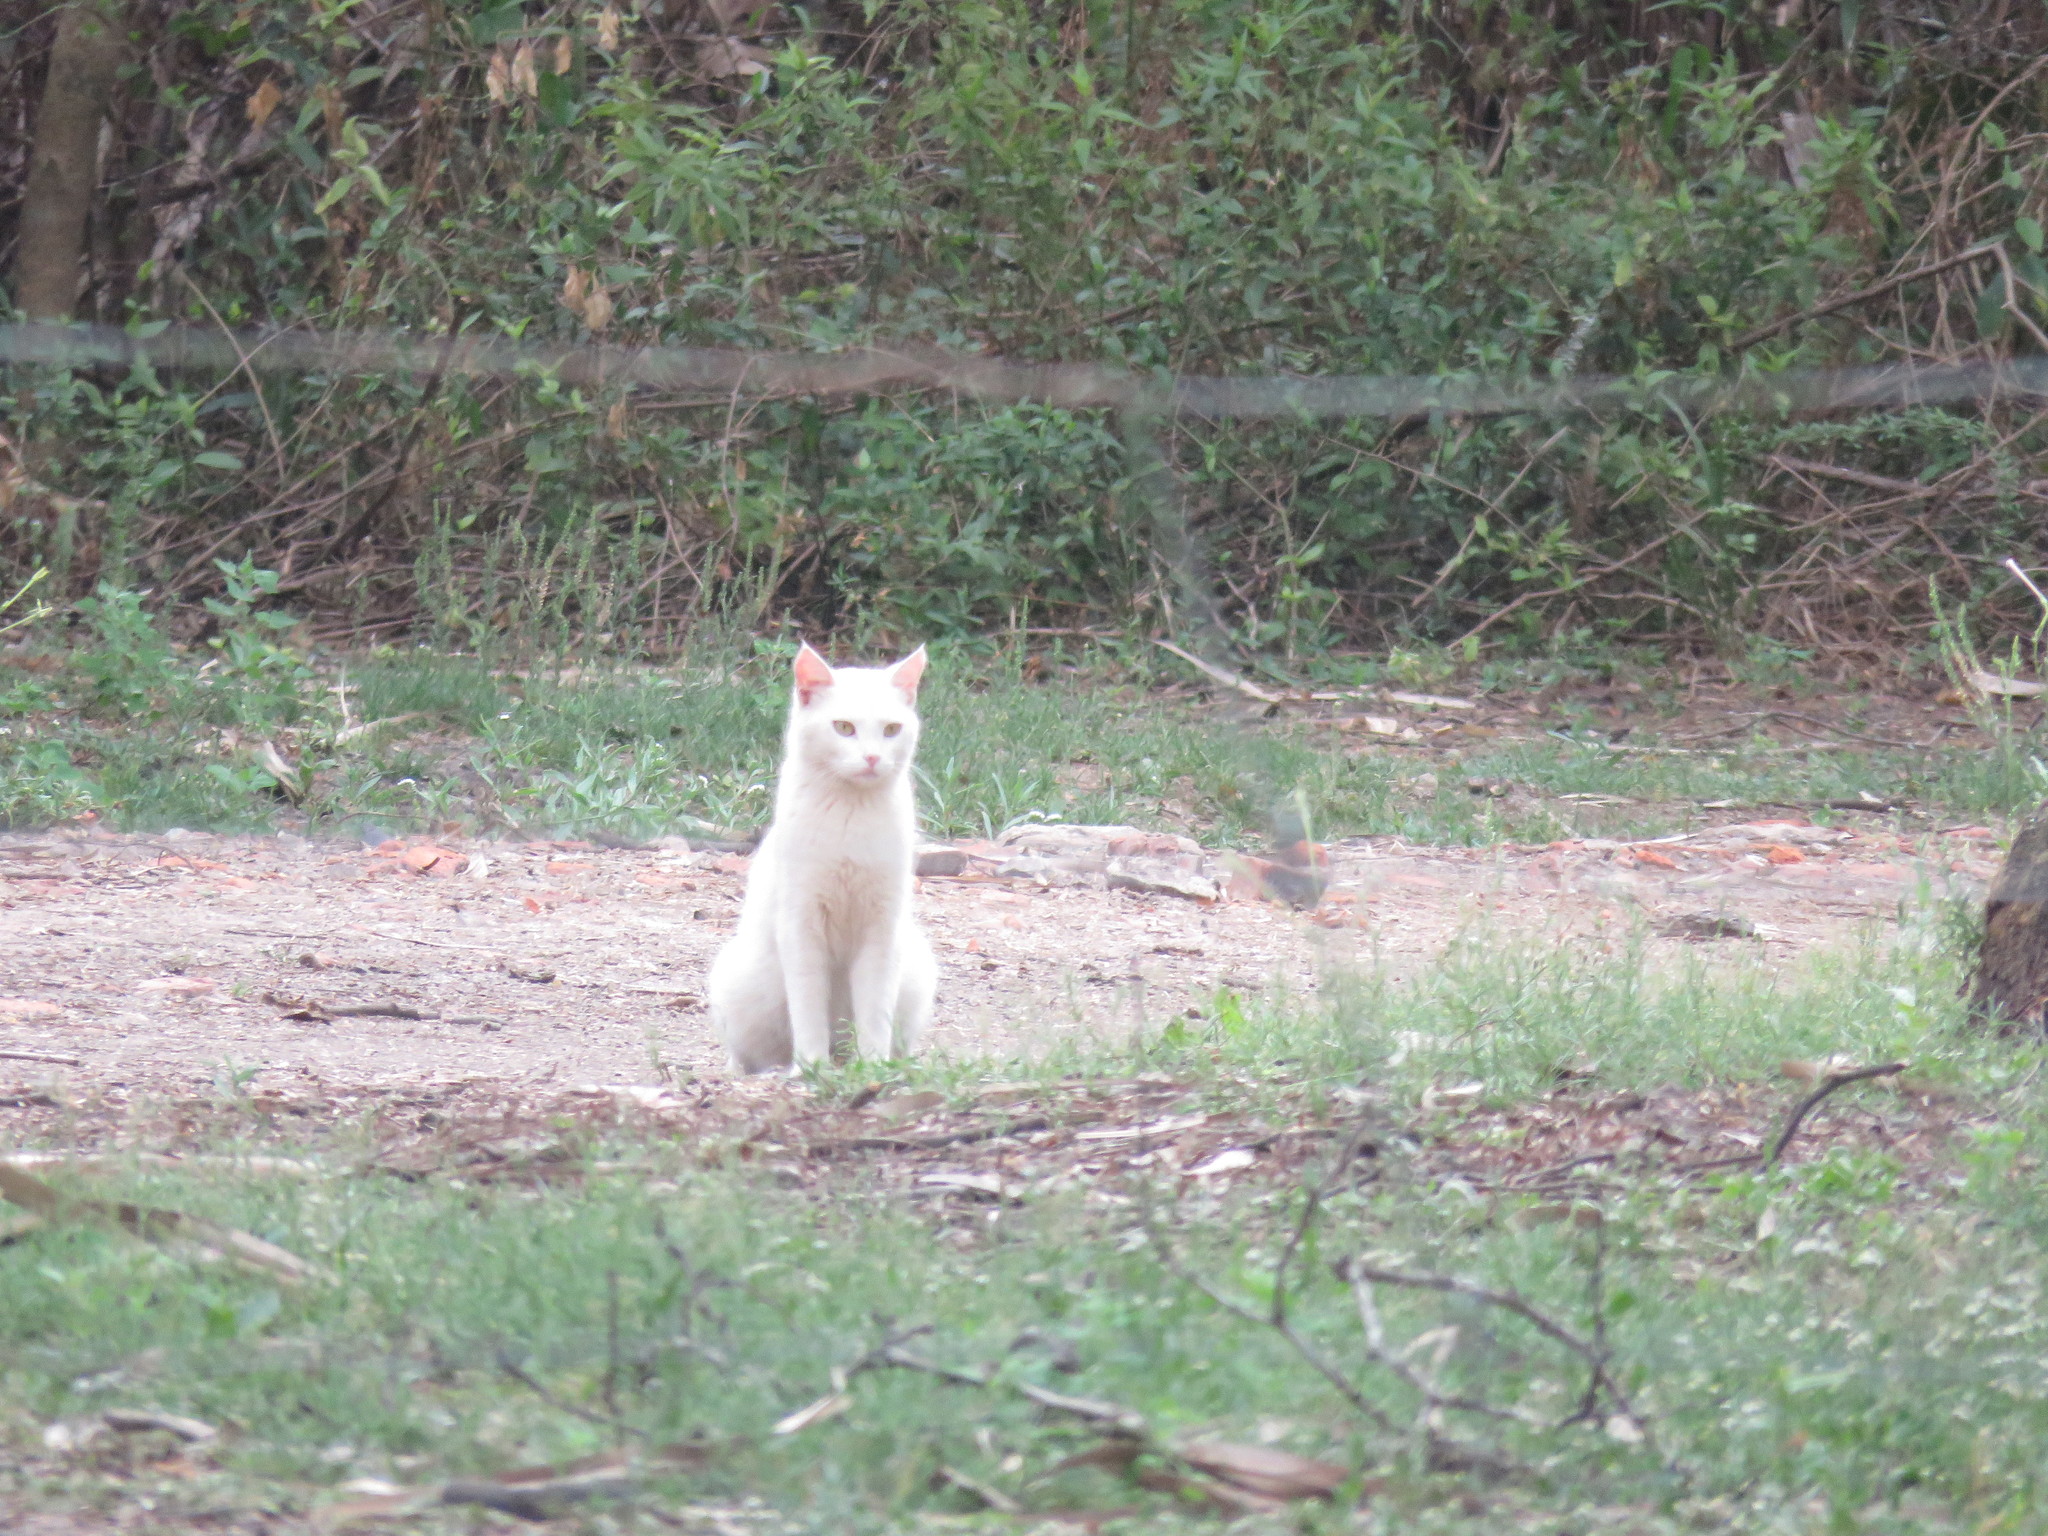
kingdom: Animalia
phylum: Chordata
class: Mammalia
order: Carnivora
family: Felidae
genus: Felis
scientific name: Felis catus
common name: Domestic cat
